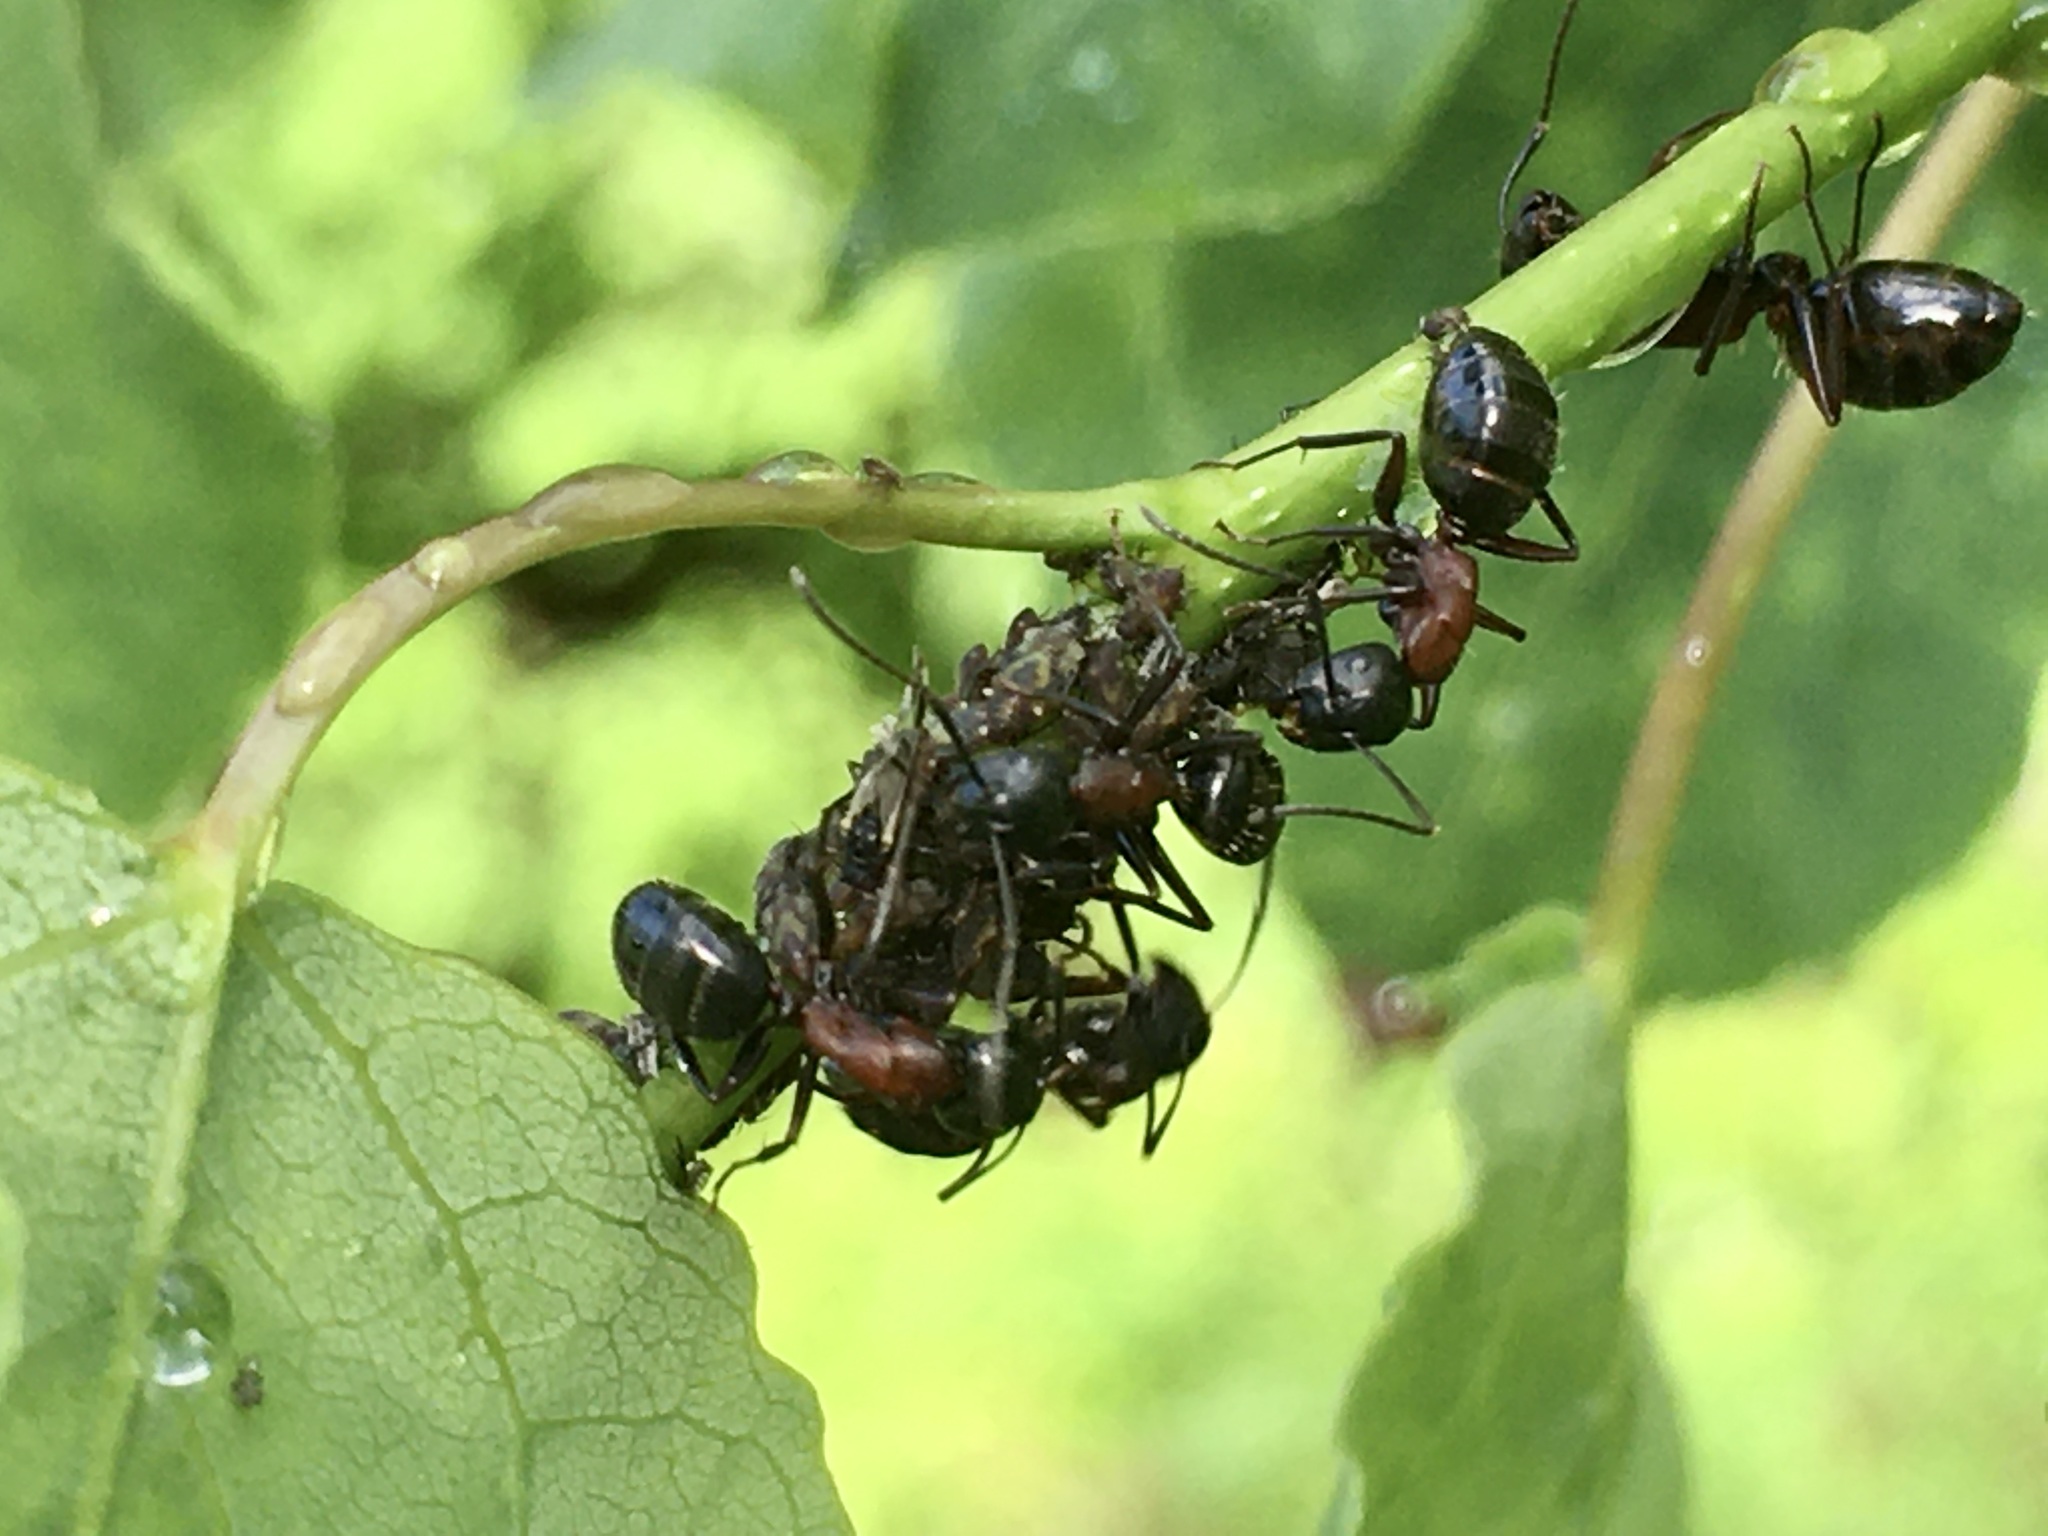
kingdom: Animalia
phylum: Arthropoda
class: Insecta
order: Hymenoptera
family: Formicidae
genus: Camponotus
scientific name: Camponotus novaeboracensis
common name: New york carpenter ant
